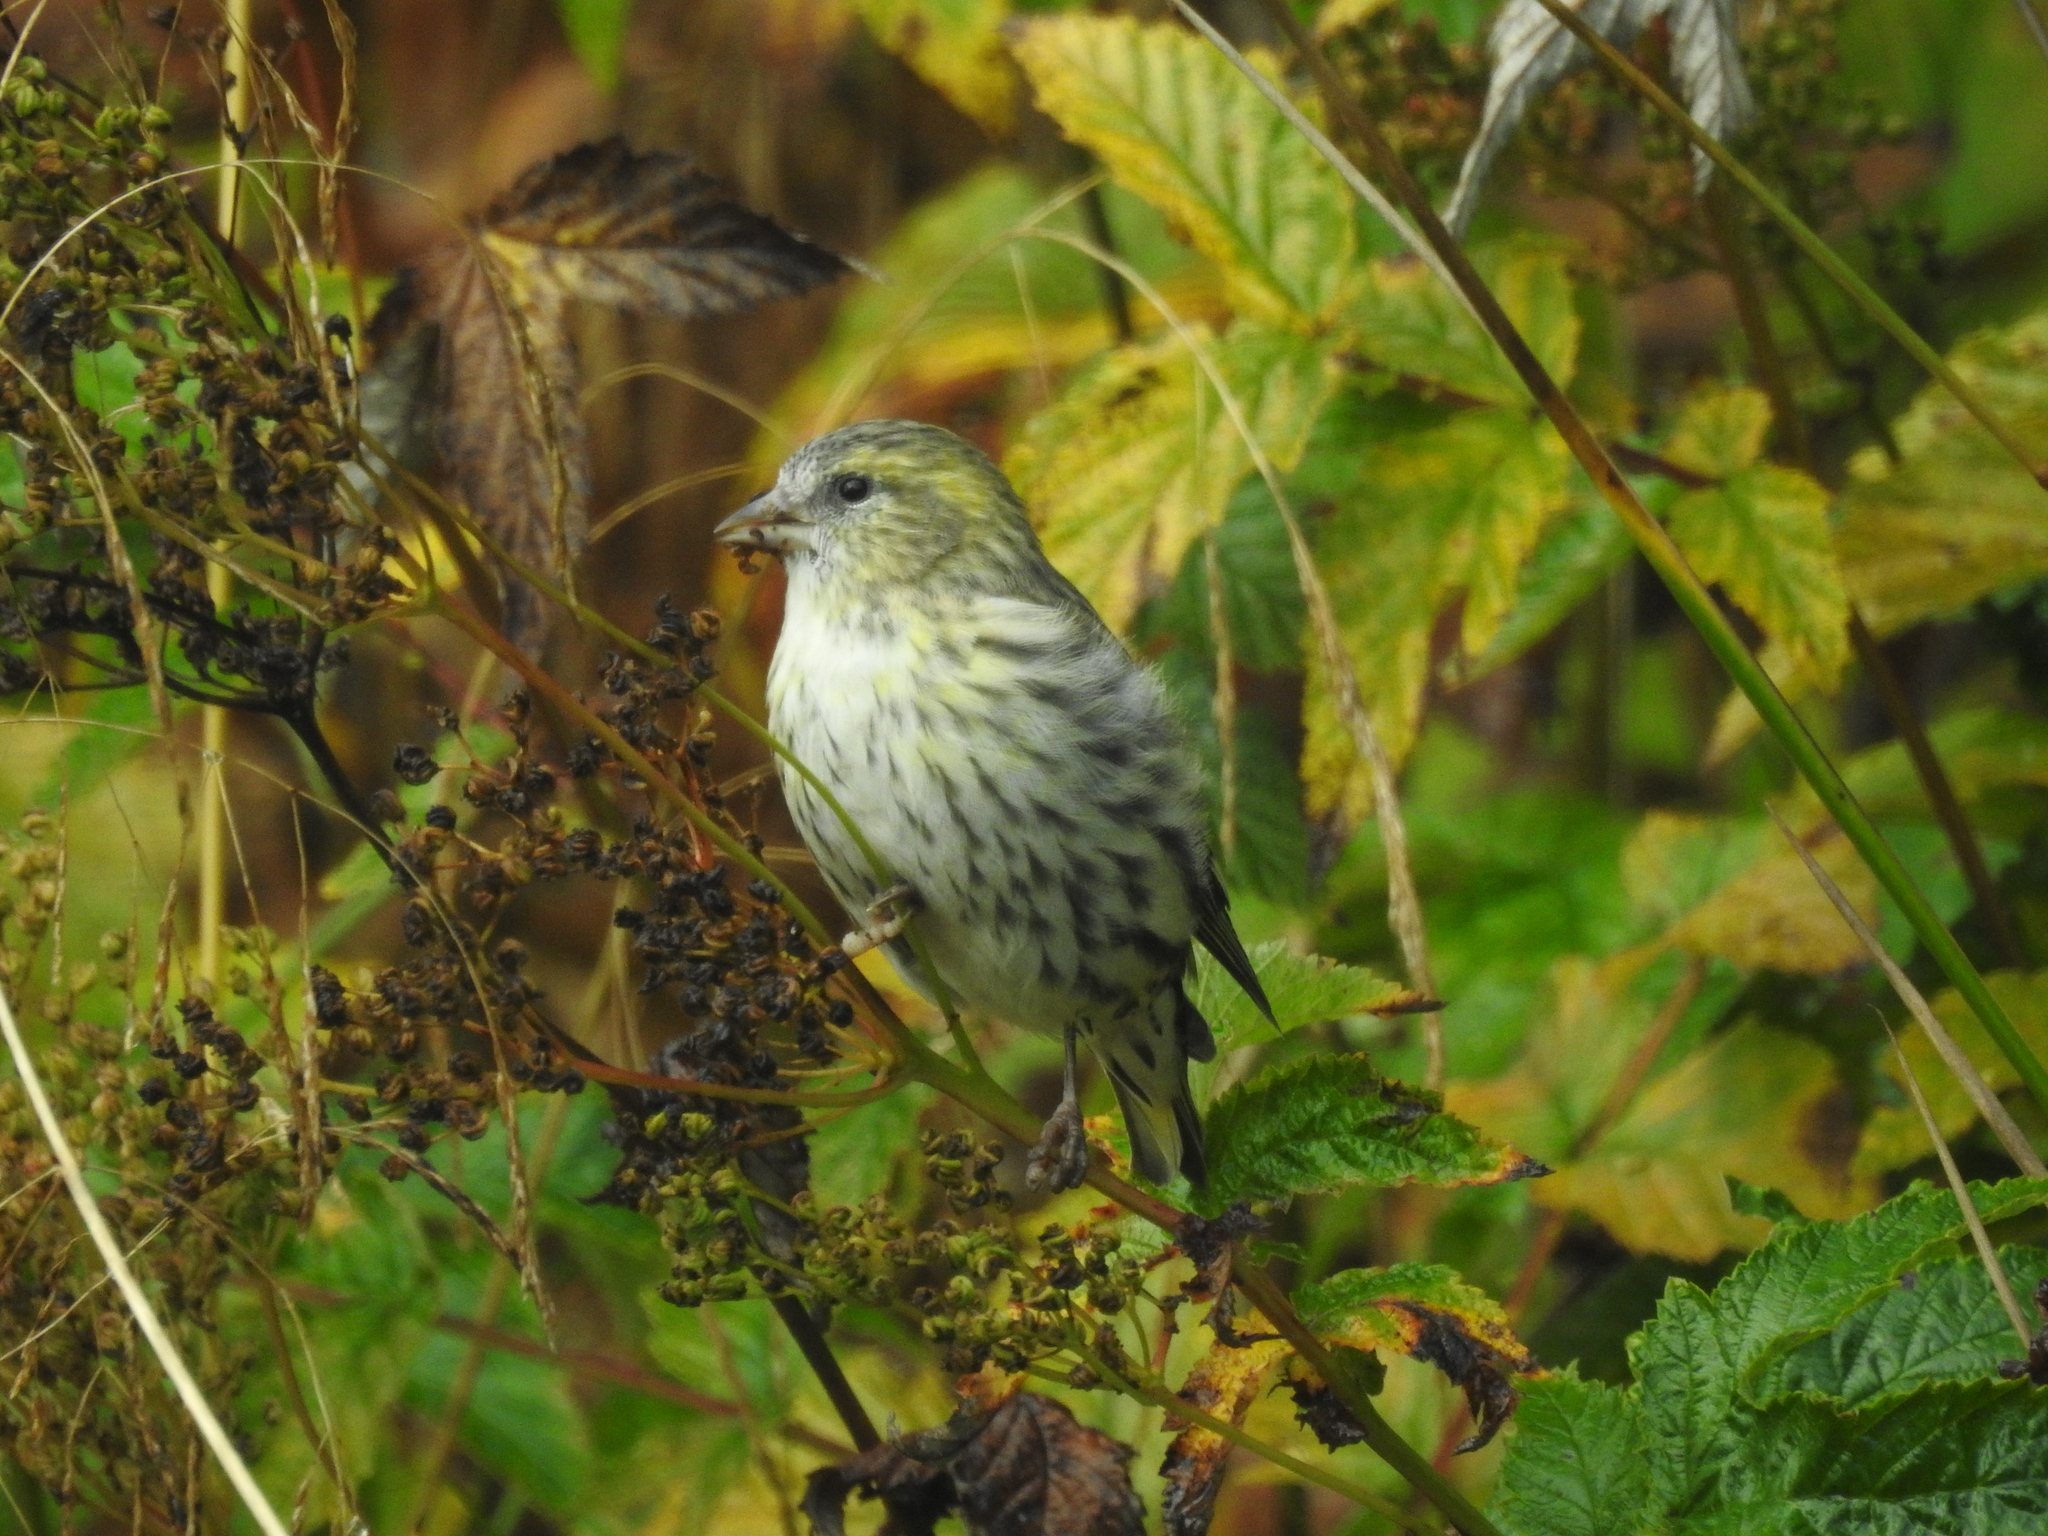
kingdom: Animalia
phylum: Chordata
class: Aves
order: Passeriformes
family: Fringillidae
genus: Spinus
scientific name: Spinus spinus
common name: Eurasian siskin
